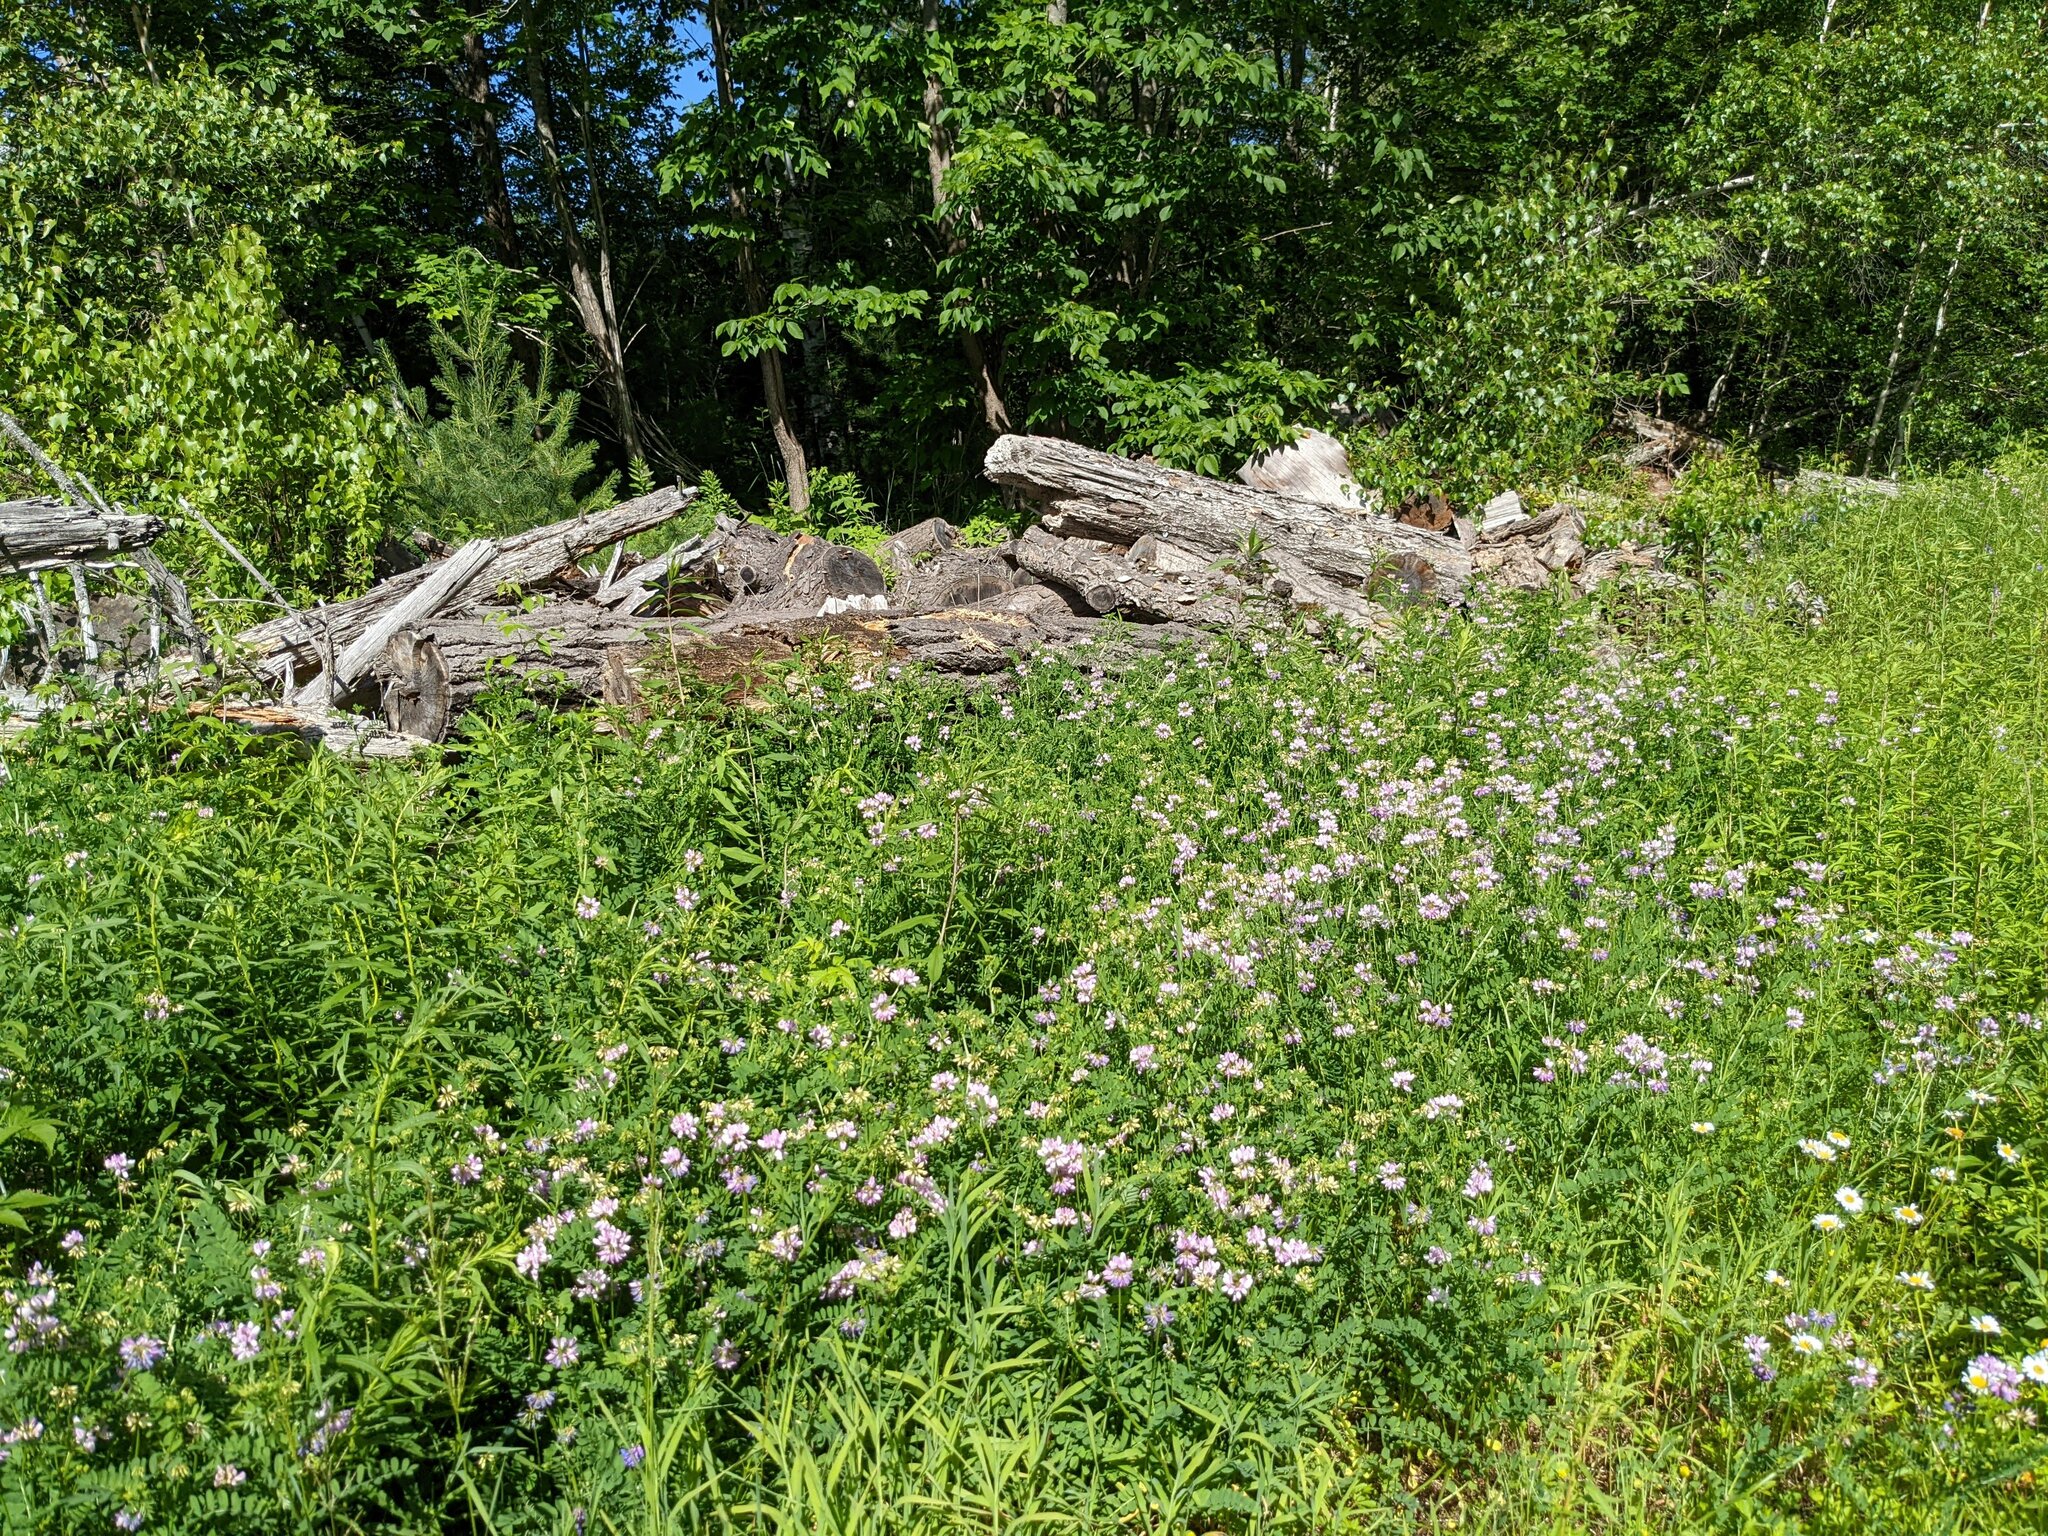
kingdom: Plantae
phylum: Tracheophyta
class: Magnoliopsida
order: Fabales
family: Fabaceae
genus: Coronilla
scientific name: Coronilla varia
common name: Crownvetch
